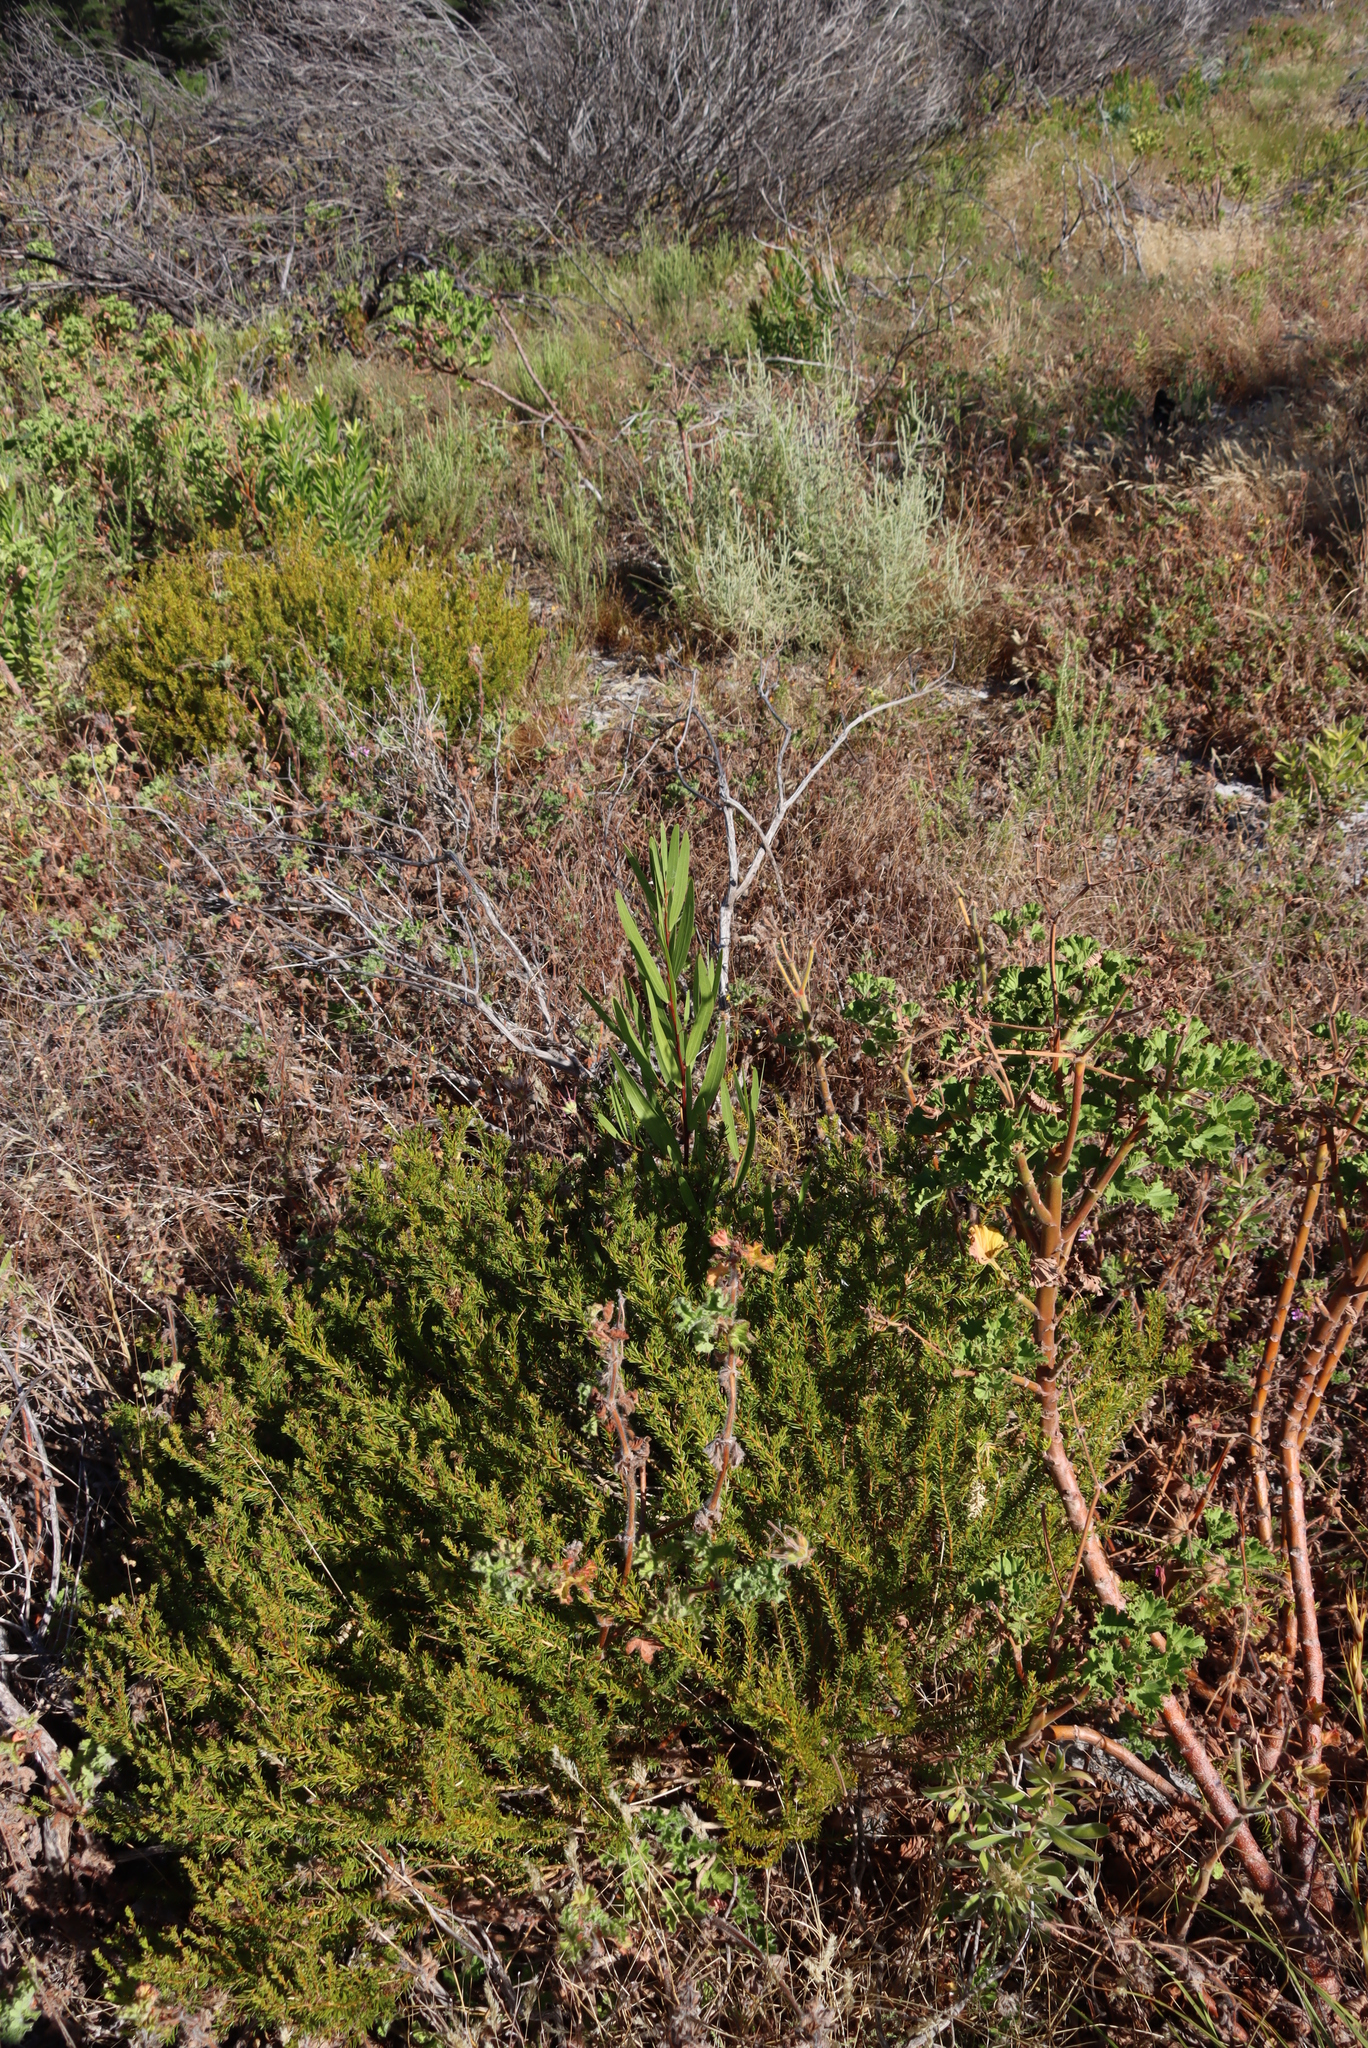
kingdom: Plantae
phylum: Tracheophyta
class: Magnoliopsida
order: Fabales
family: Fabaceae
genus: Acacia
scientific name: Acacia longifolia
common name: Sydney golden wattle
